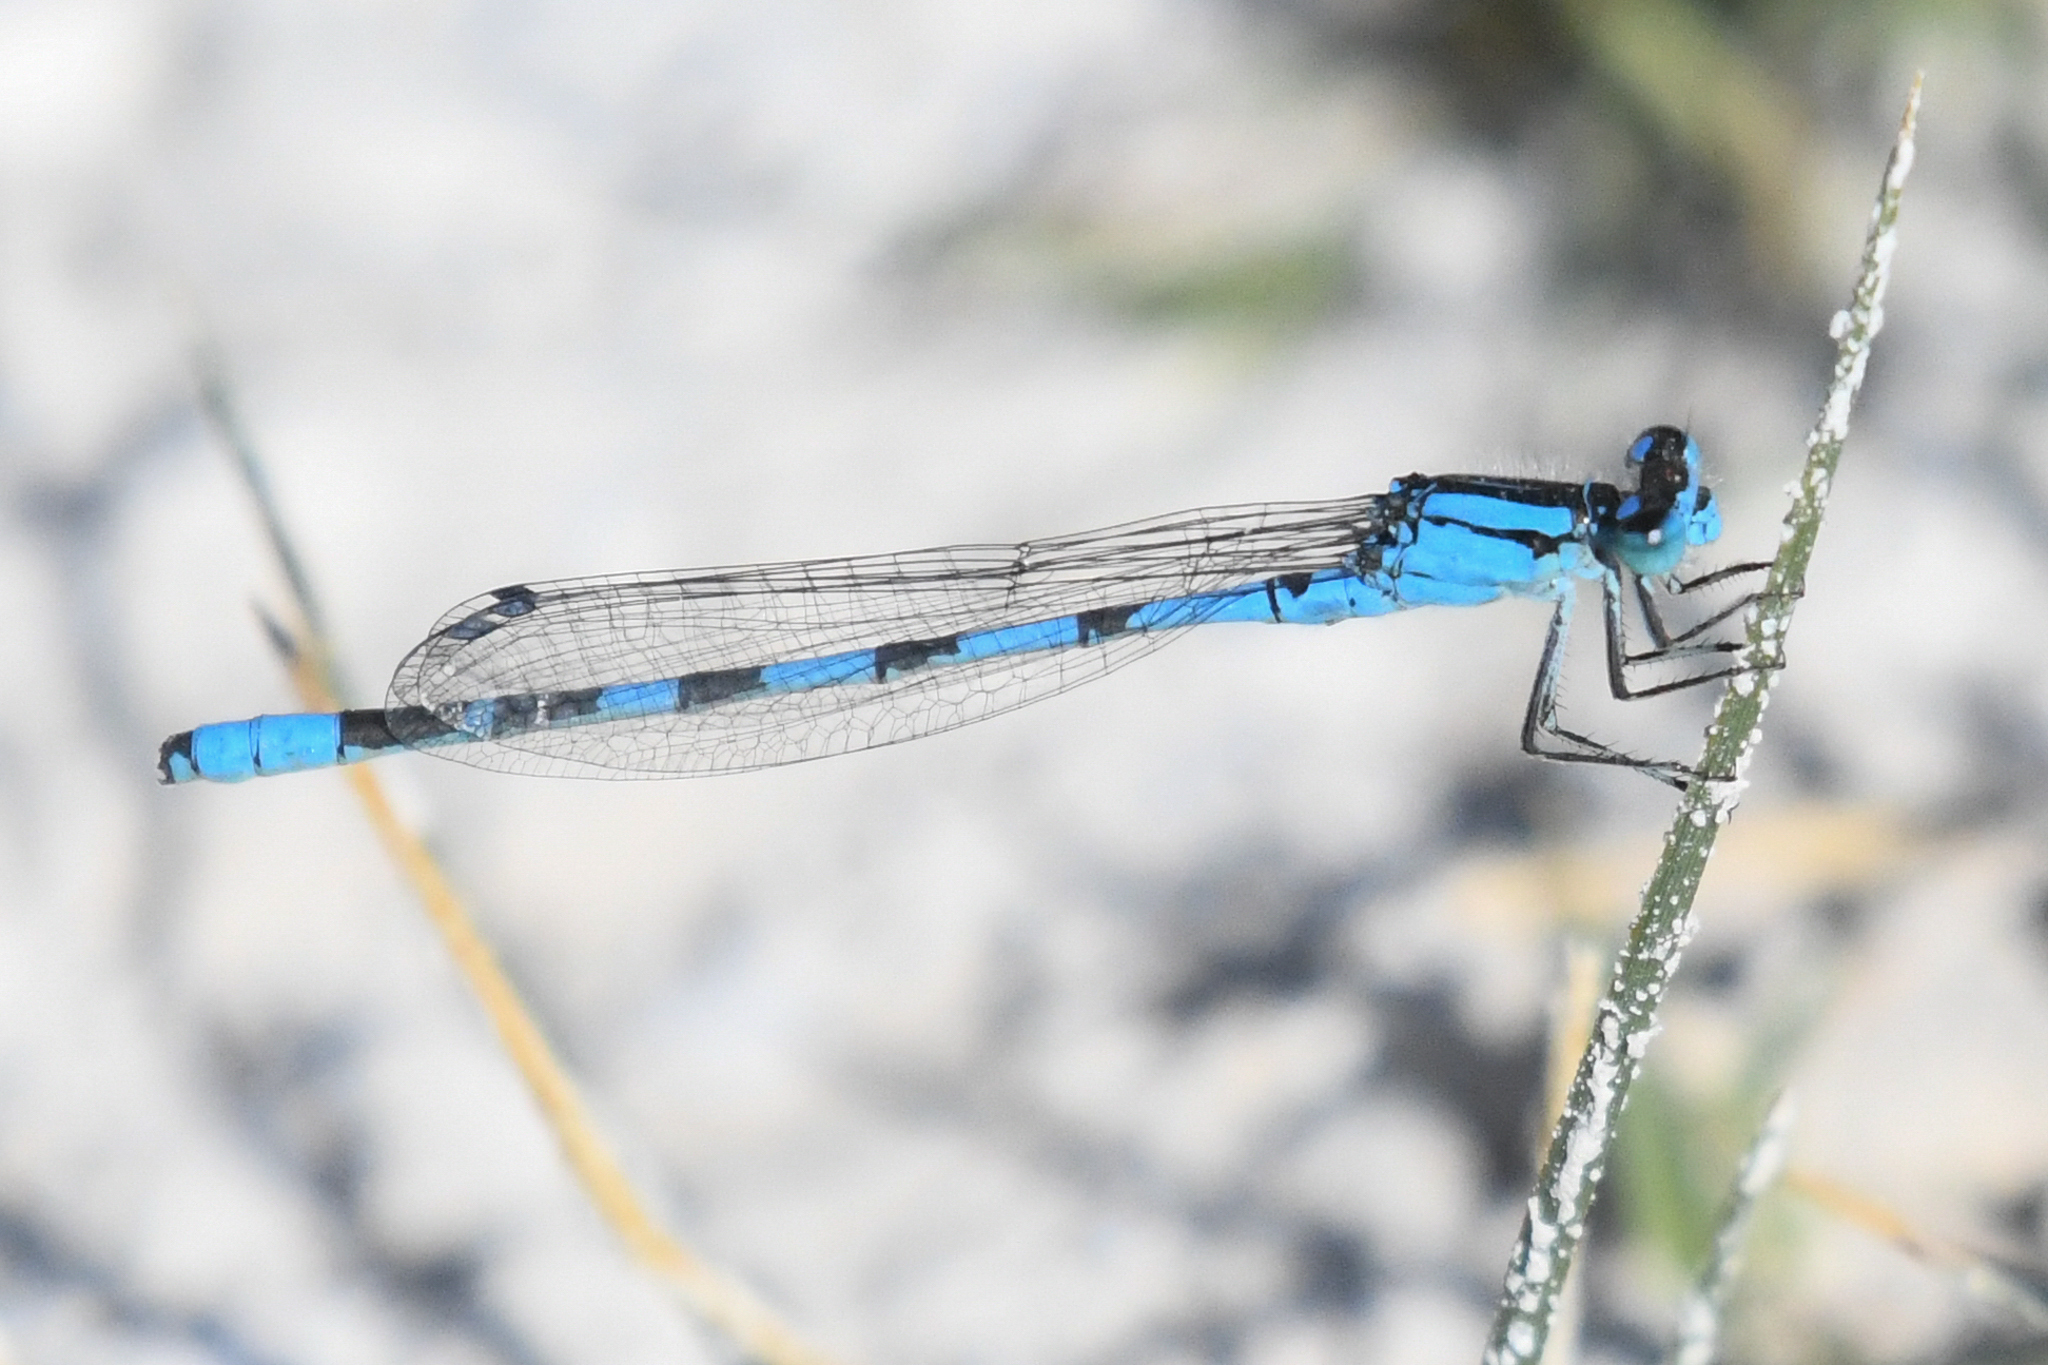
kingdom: Animalia
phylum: Arthropoda
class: Insecta
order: Odonata
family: Coenagrionidae
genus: Enallagma
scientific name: Enallagma clausum
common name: Alkali bluet
